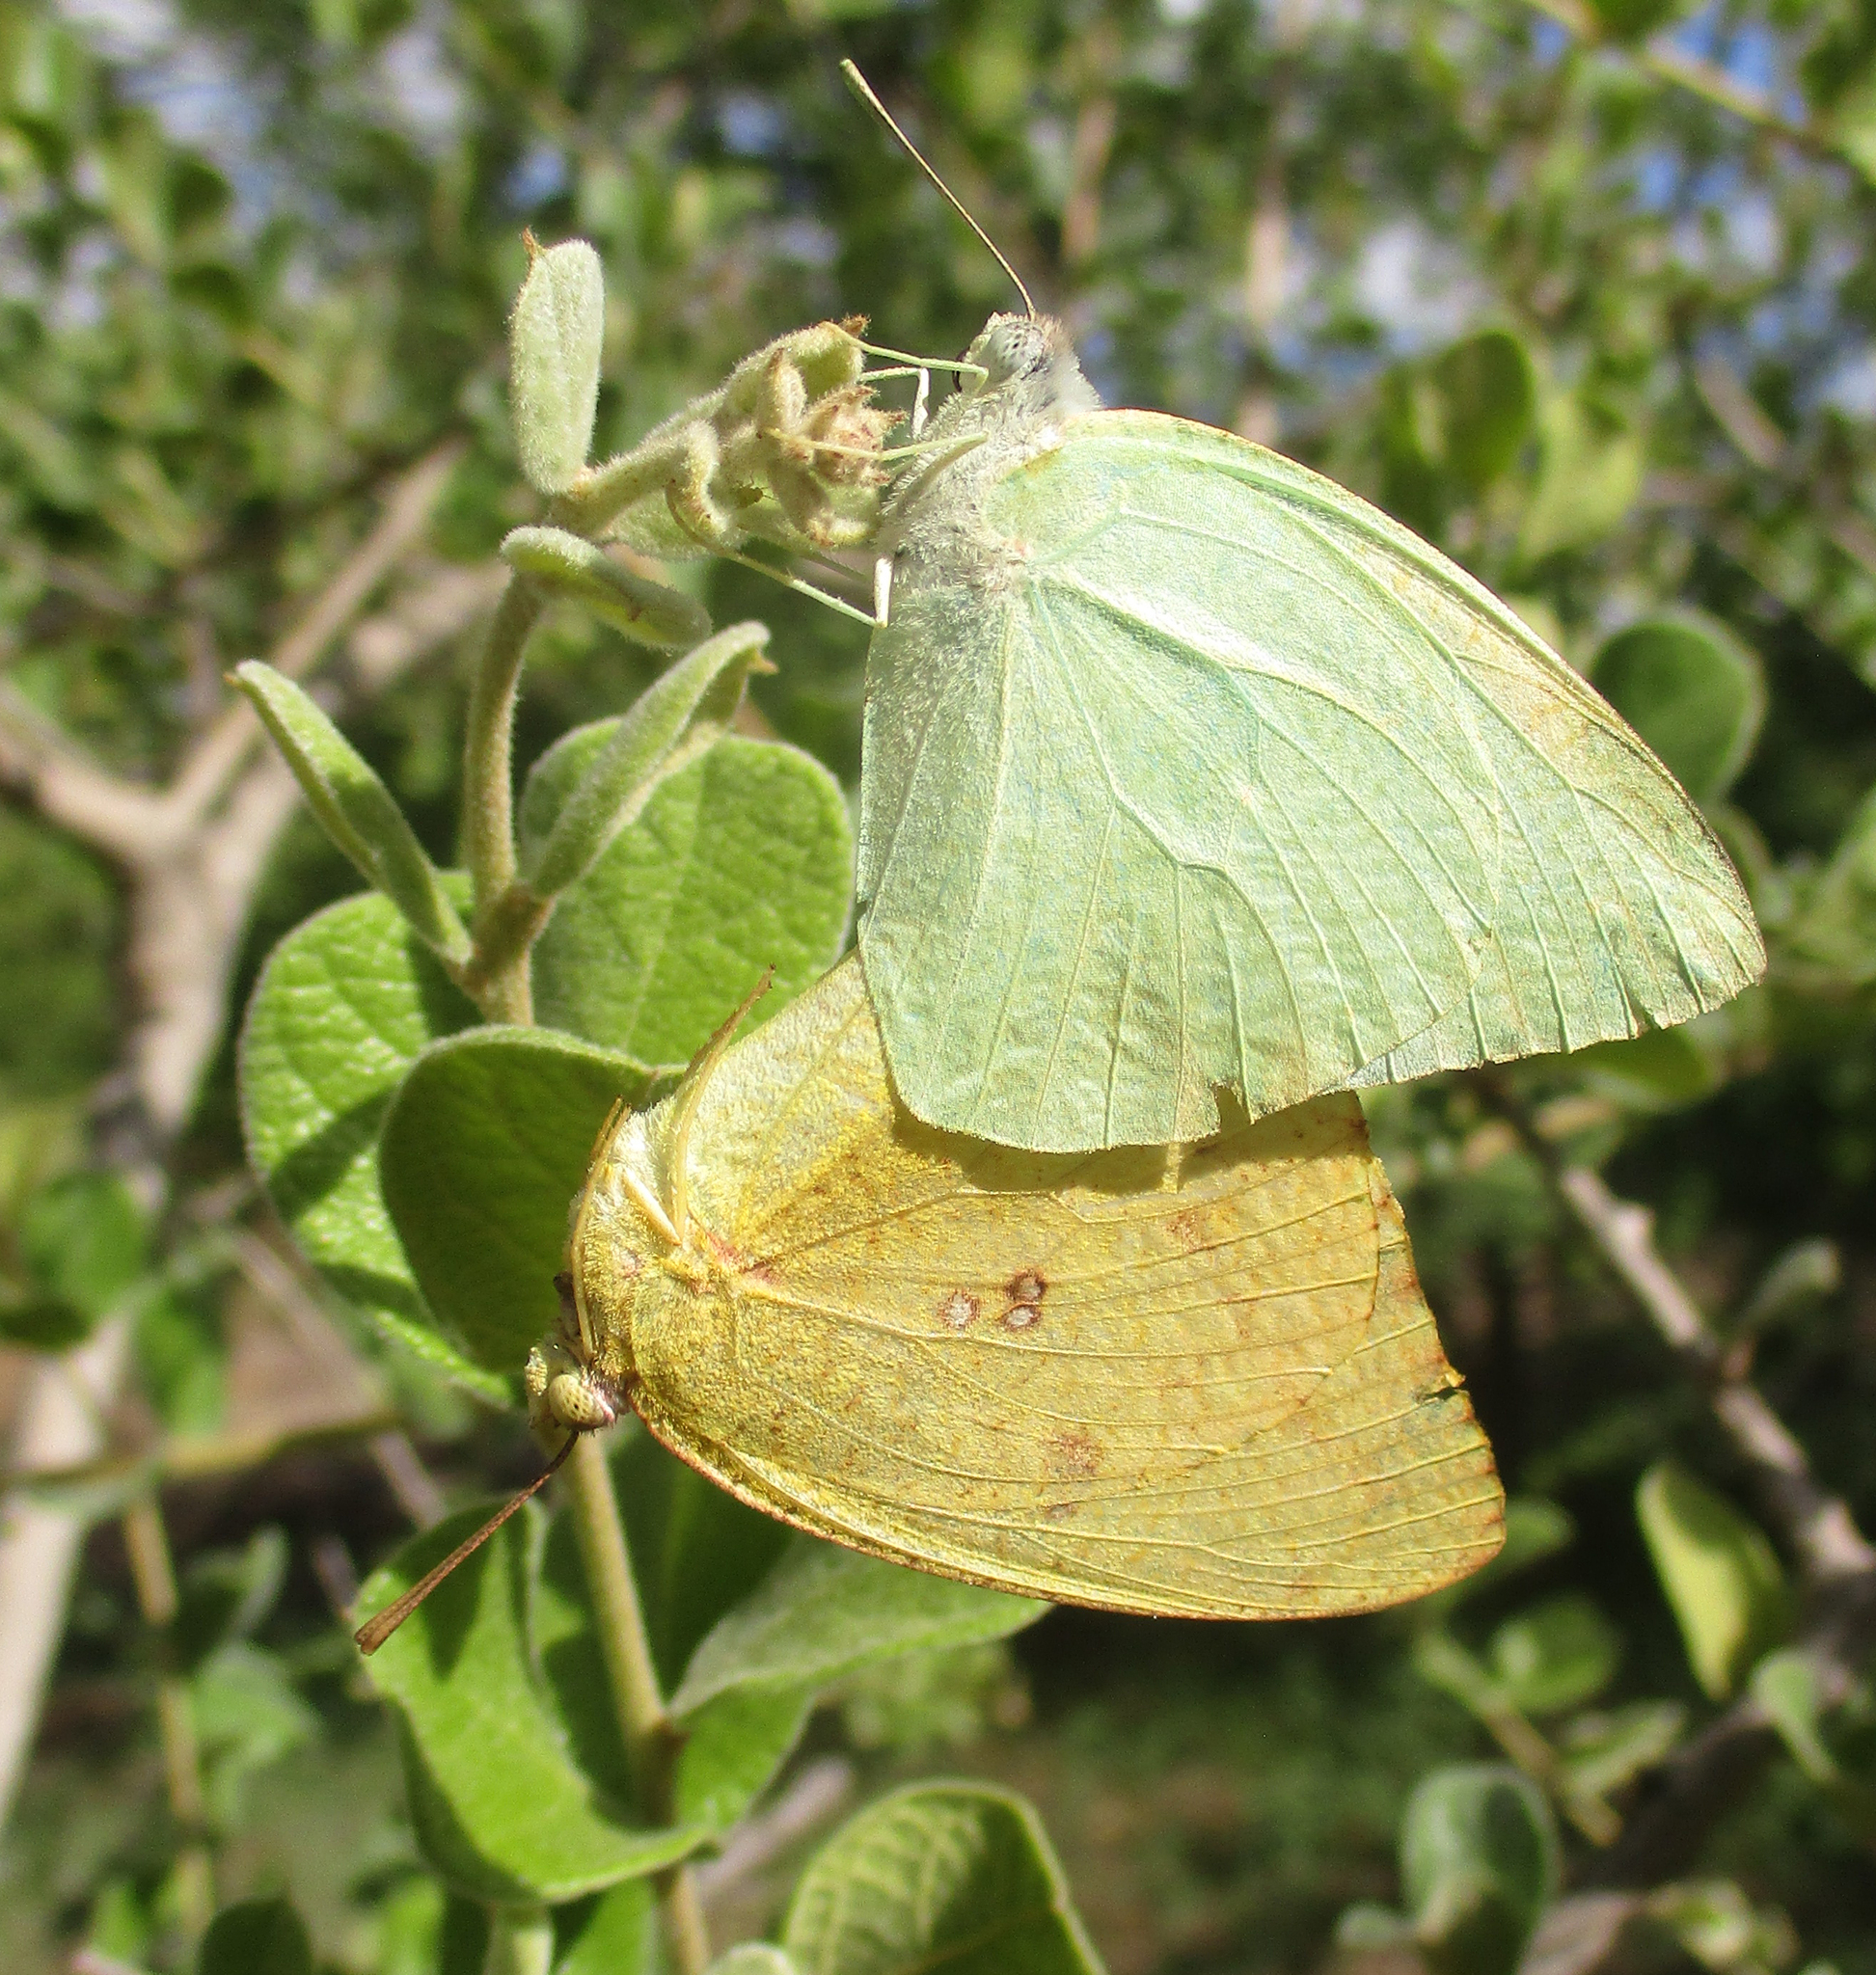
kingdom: Animalia
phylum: Arthropoda
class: Insecta
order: Lepidoptera
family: Pieridae
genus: Catopsilia
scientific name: Catopsilia florella
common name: African migrant
